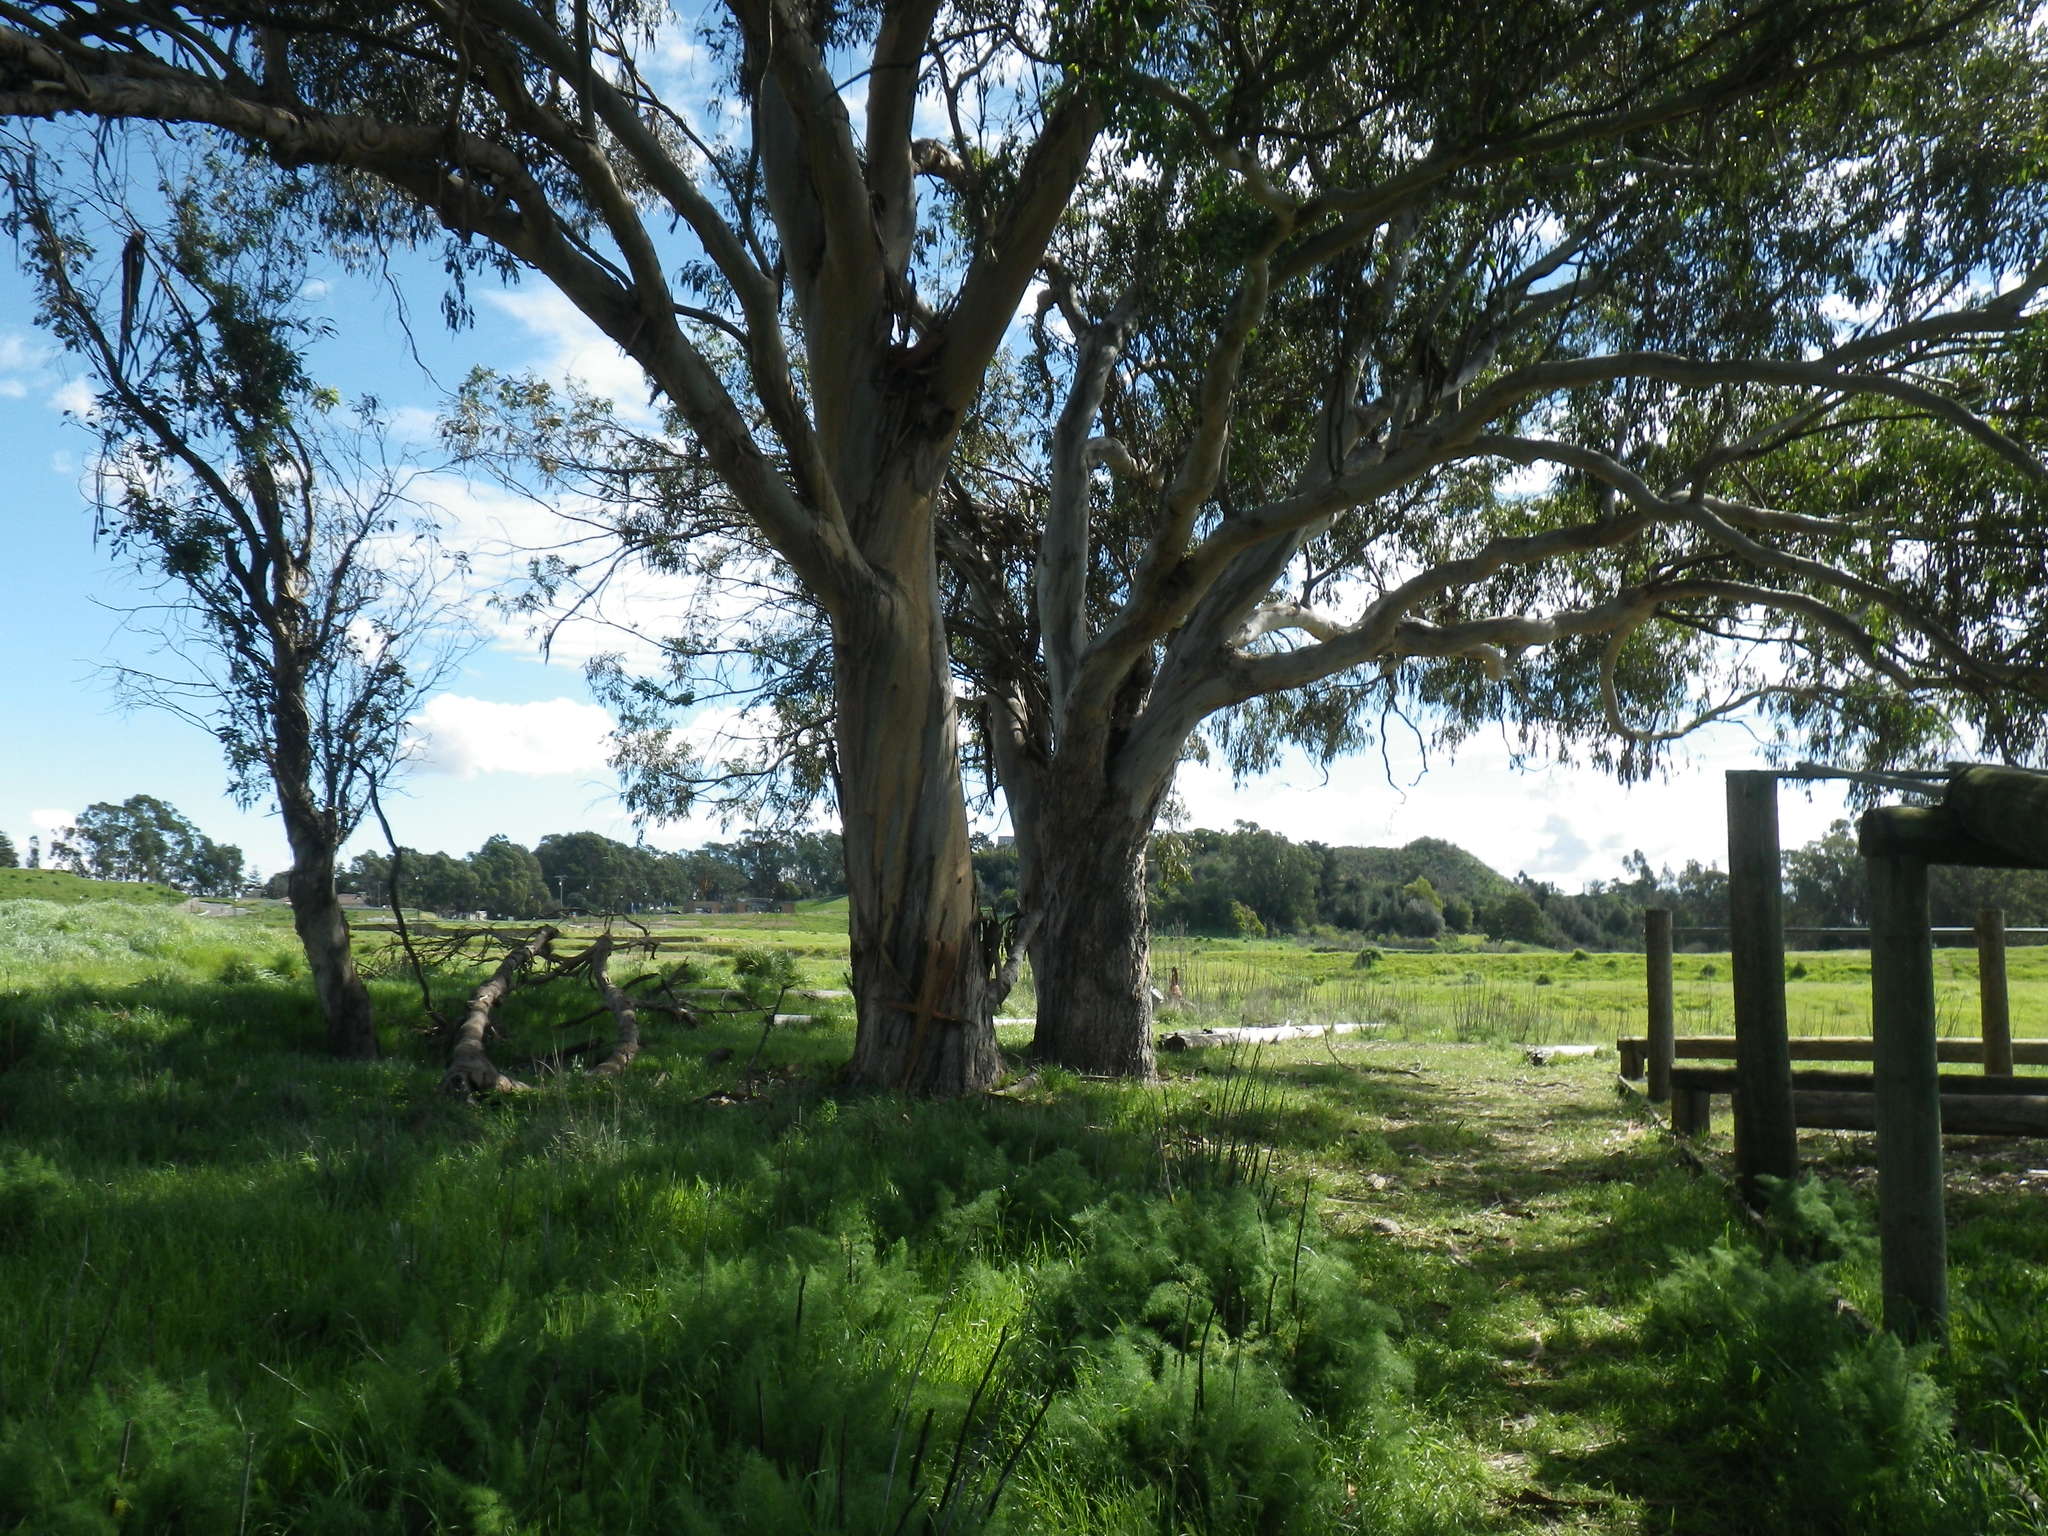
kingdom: Plantae
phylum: Tracheophyta
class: Magnoliopsida
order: Myrtales
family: Myrtaceae
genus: Eucalyptus
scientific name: Eucalyptus globulus
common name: Southern blue-gum
